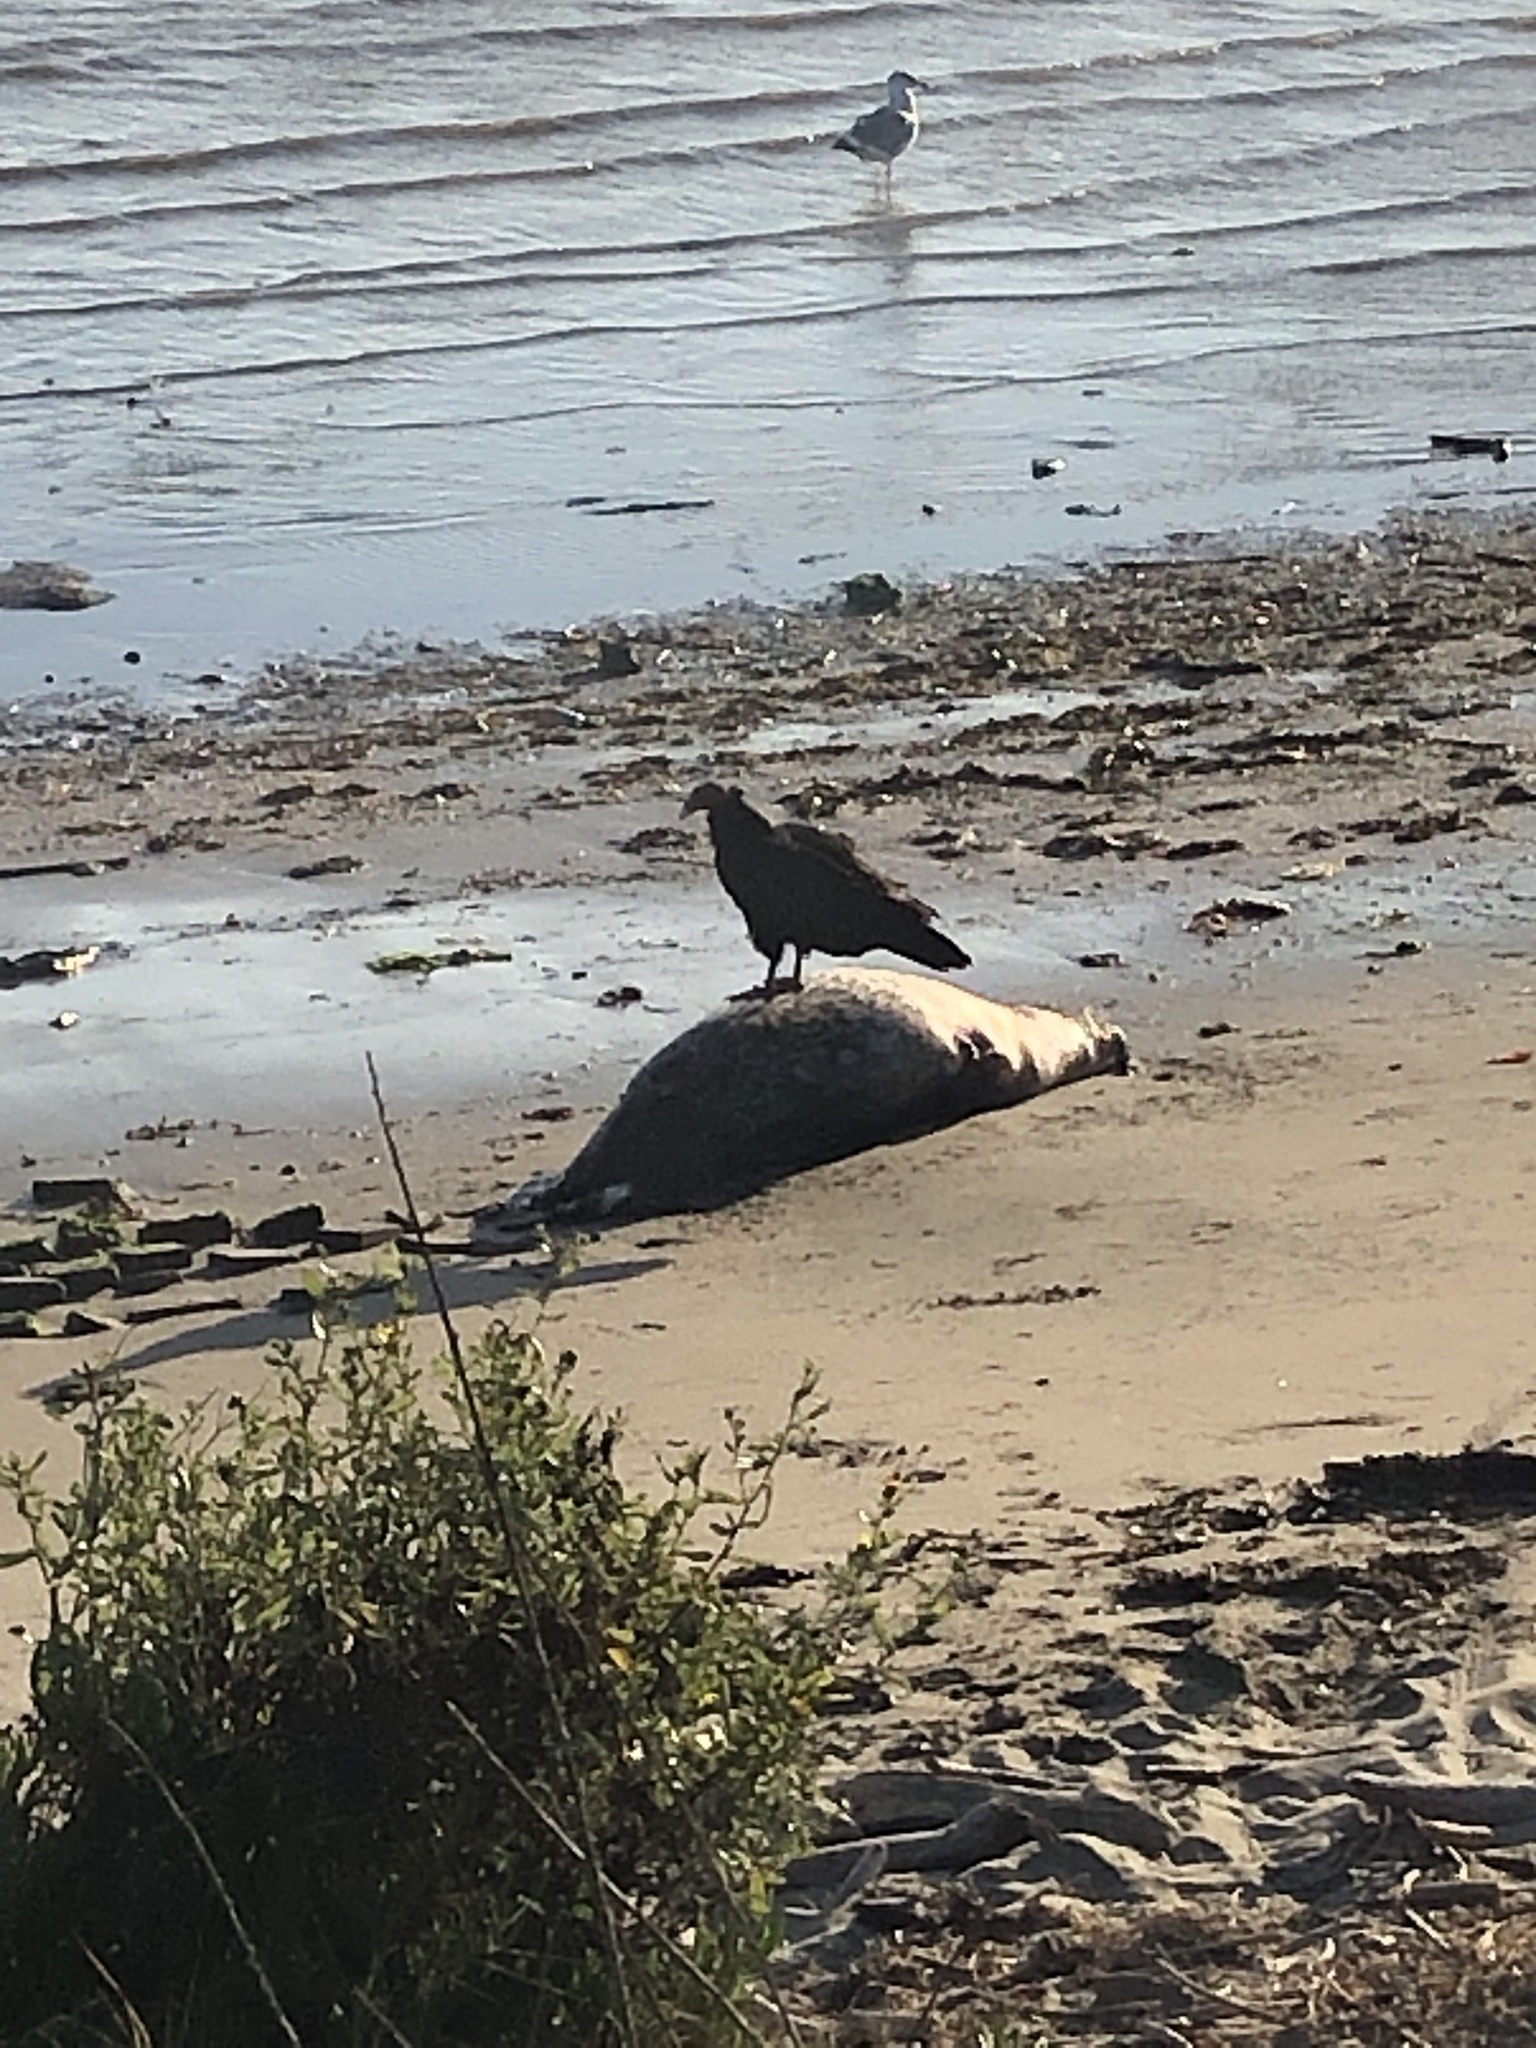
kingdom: Animalia
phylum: Chordata
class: Aves
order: Accipitriformes
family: Cathartidae
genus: Cathartes
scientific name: Cathartes aura
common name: Turkey vulture
